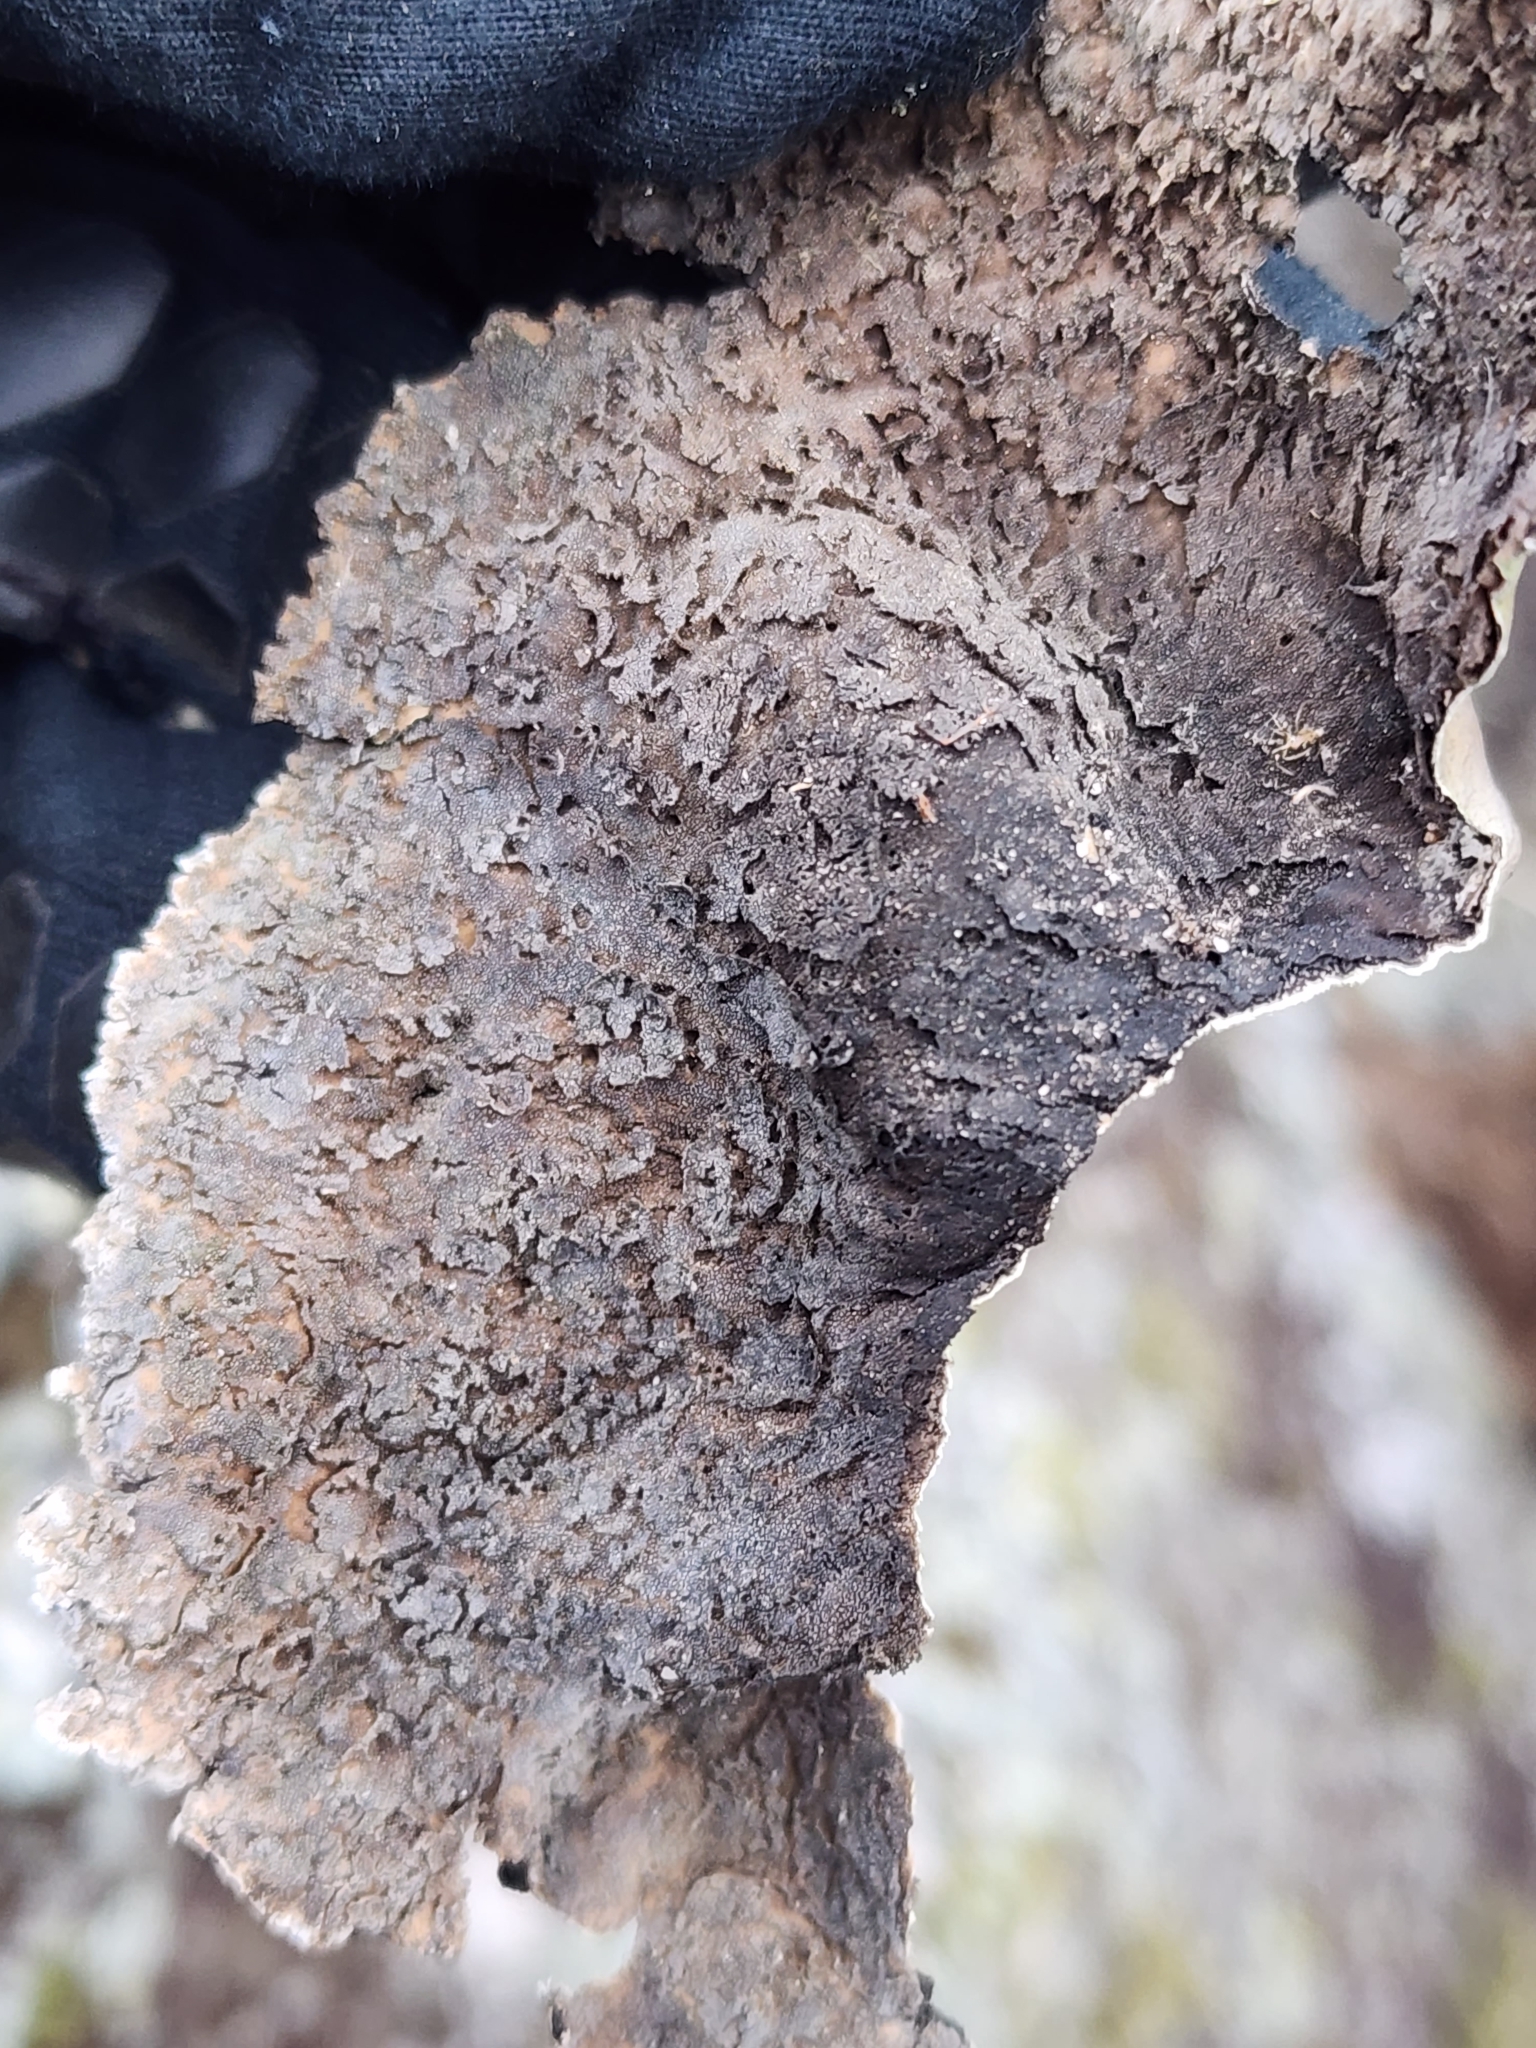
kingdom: Fungi
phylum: Ascomycota
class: Lecanoromycetes
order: Umbilicariales
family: Umbilicariaceae
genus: Umbilicaria
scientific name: Umbilicaria muhlenbergii
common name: Lesser rocktripe
